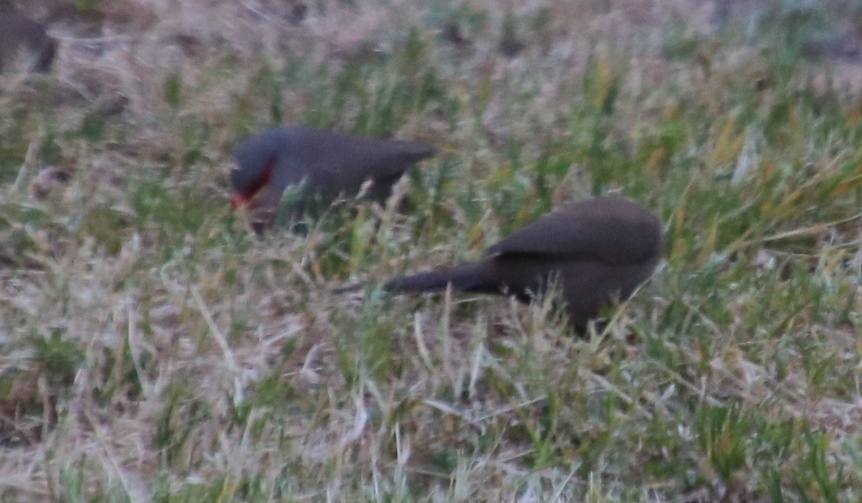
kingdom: Animalia
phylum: Chordata
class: Aves
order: Passeriformes
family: Estrildidae
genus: Estrilda
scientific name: Estrilda astrild
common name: Common waxbill
